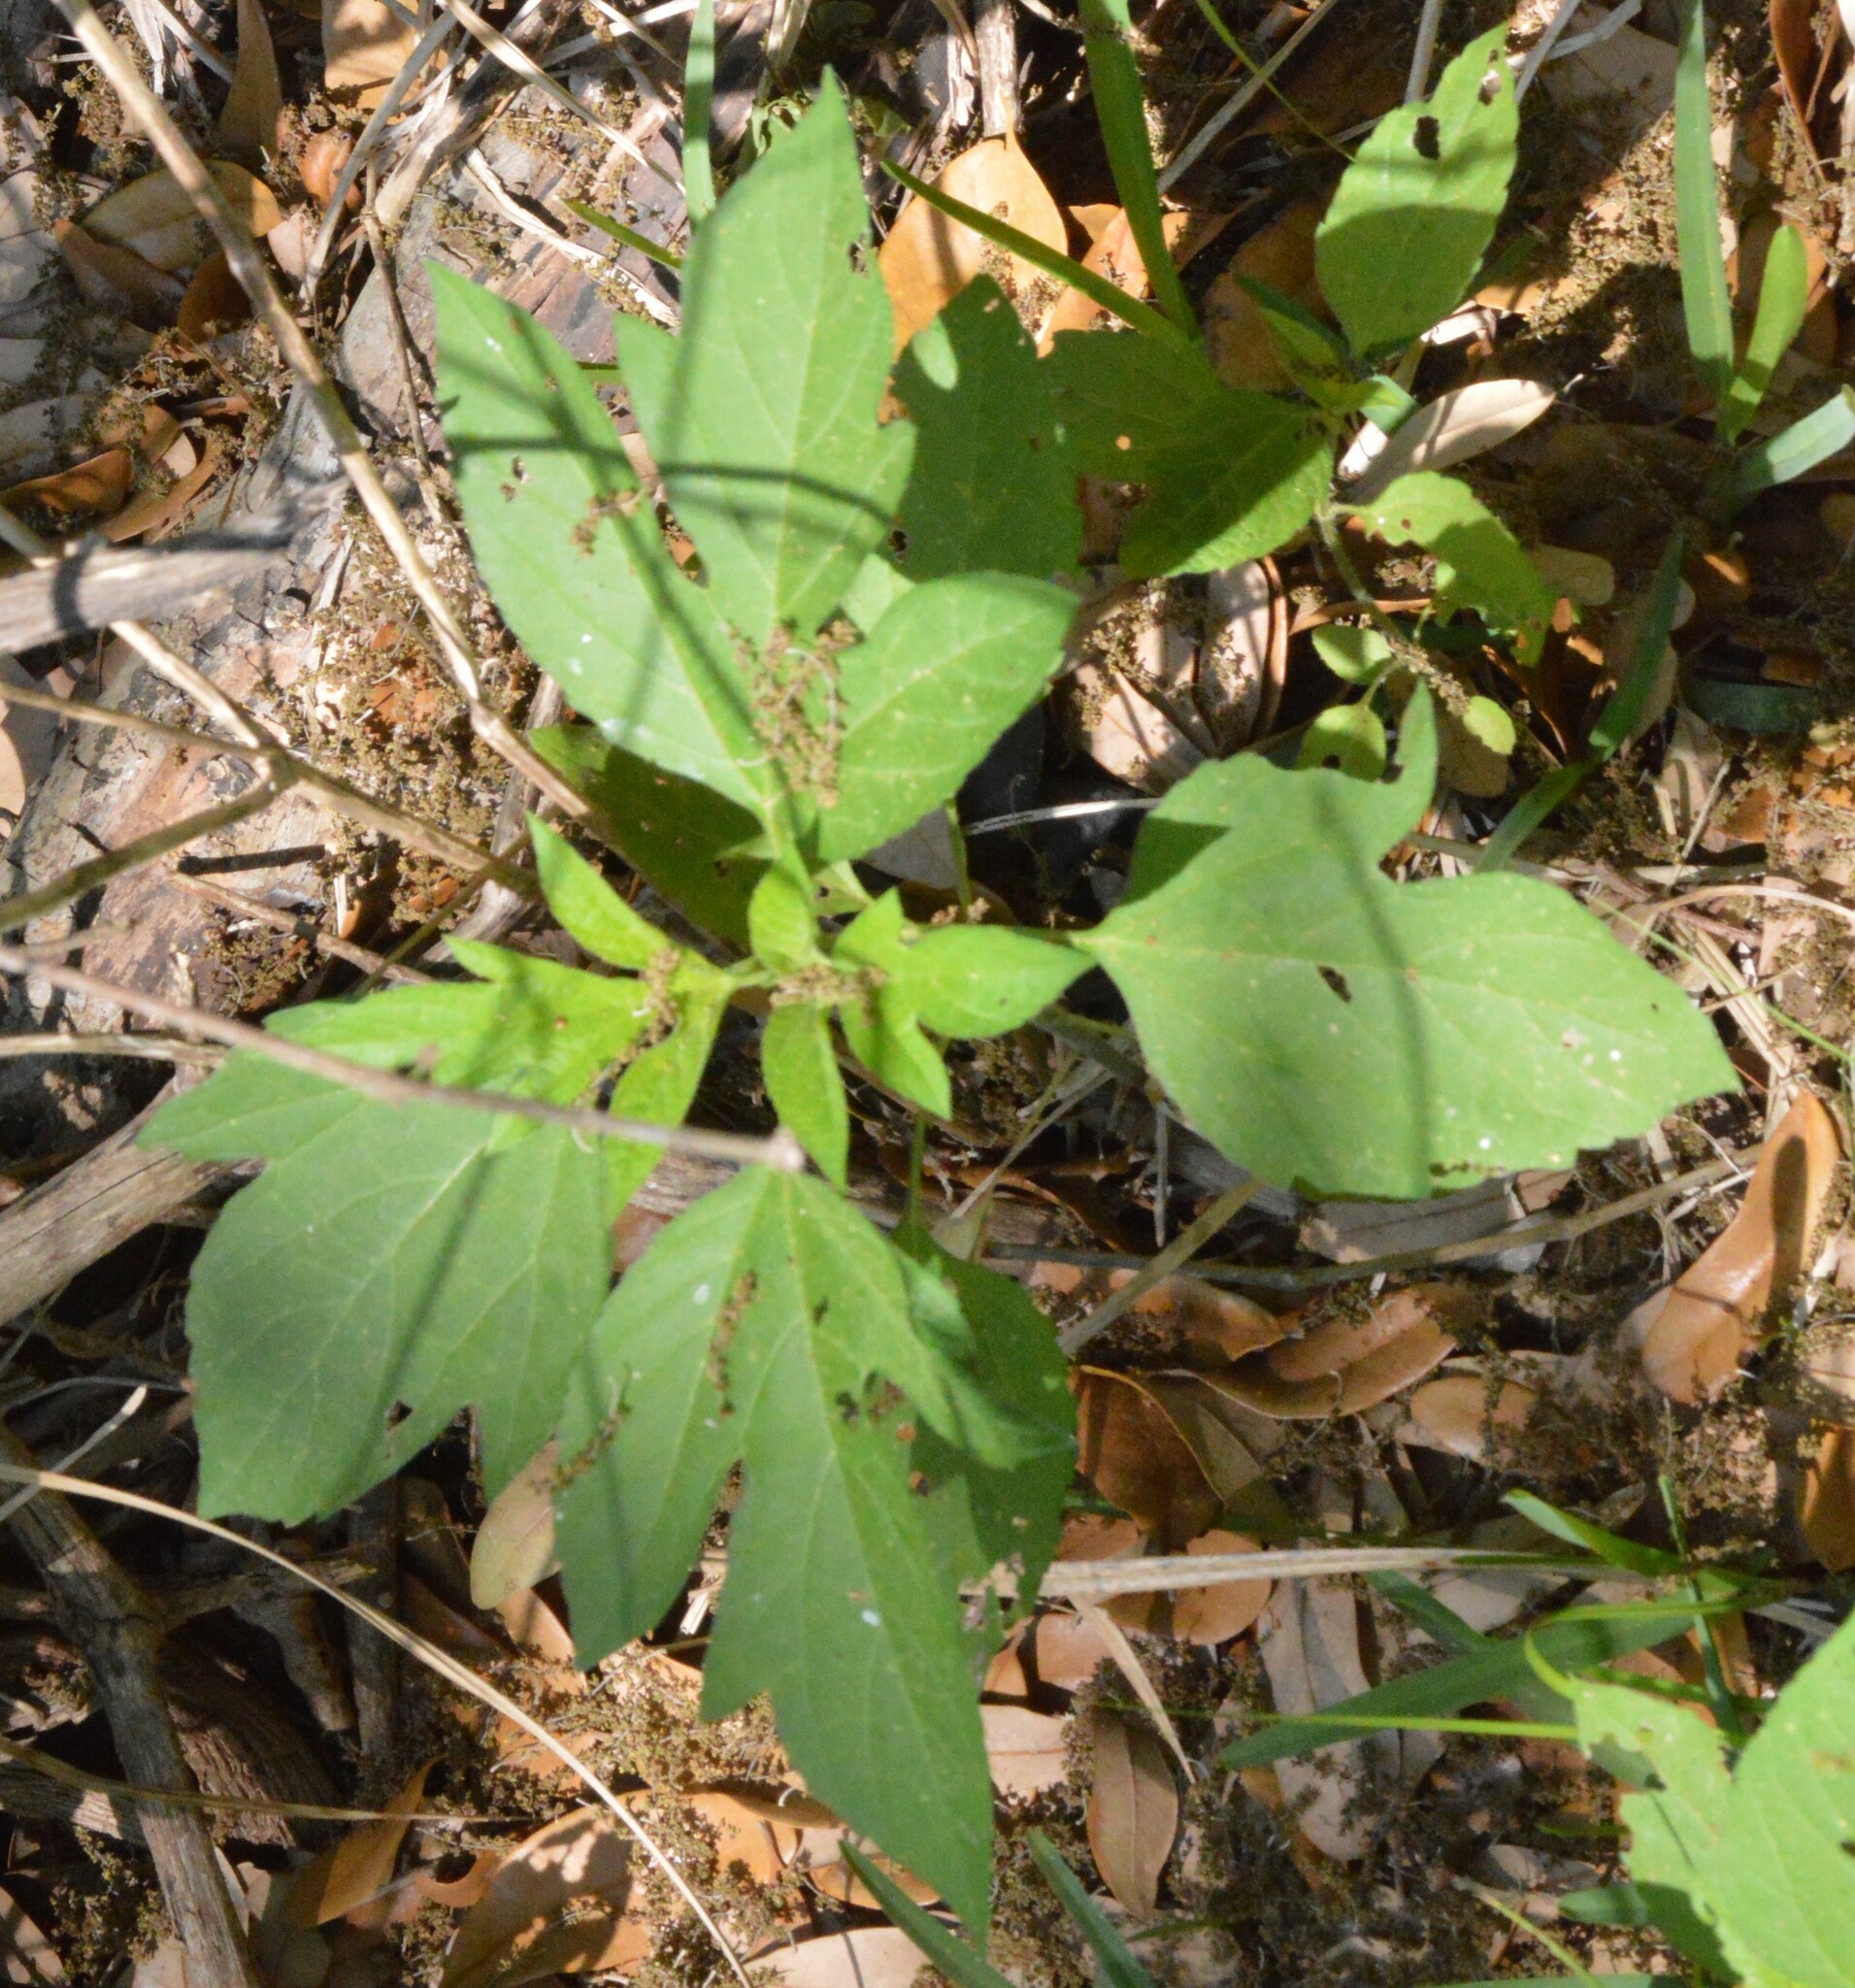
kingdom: Plantae
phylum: Tracheophyta
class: Magnoliopsida
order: Asterales
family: Asteraceae
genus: Ambrosia
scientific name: Ambrosia trifida
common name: Giant ragweed
